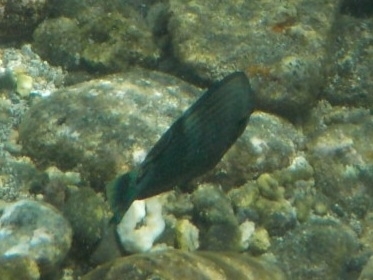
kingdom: Animalia
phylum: Chordata
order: Perciformes
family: Labridae
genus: Halichoeres
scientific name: Halichoeres marginatus
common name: Dusky wrasse
